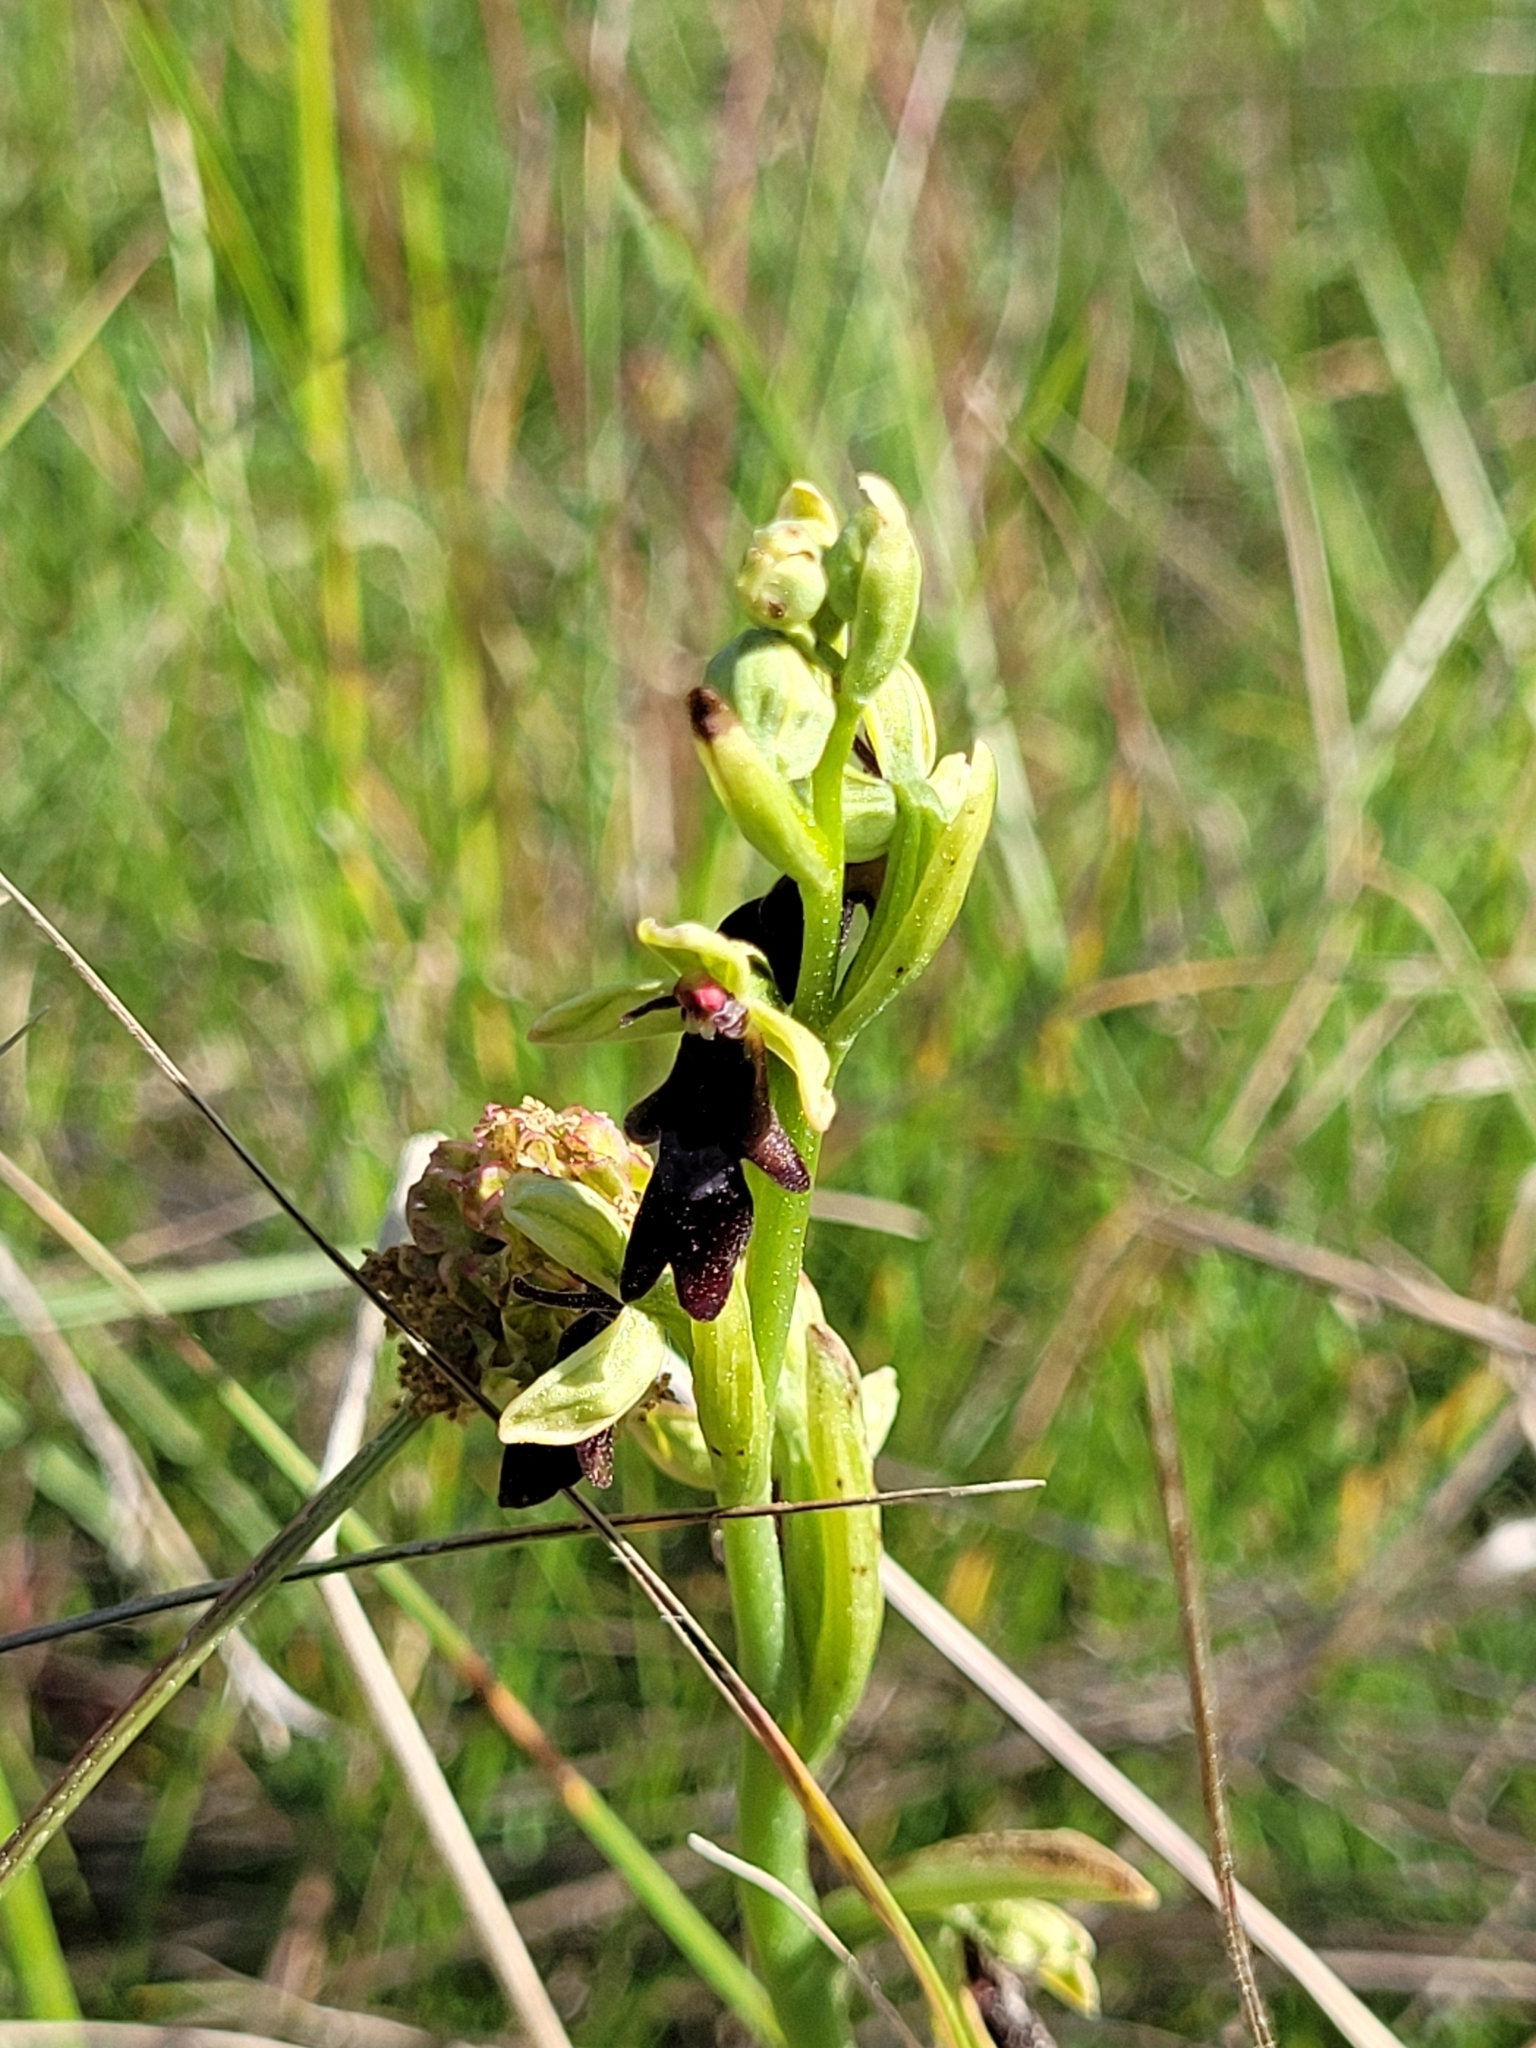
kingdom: Plantae
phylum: Tracheophyta
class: Liliopsida
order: Asparagales
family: Orchidaceae
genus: Ophrys
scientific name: Ophrys insectifera
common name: Fly orchid
